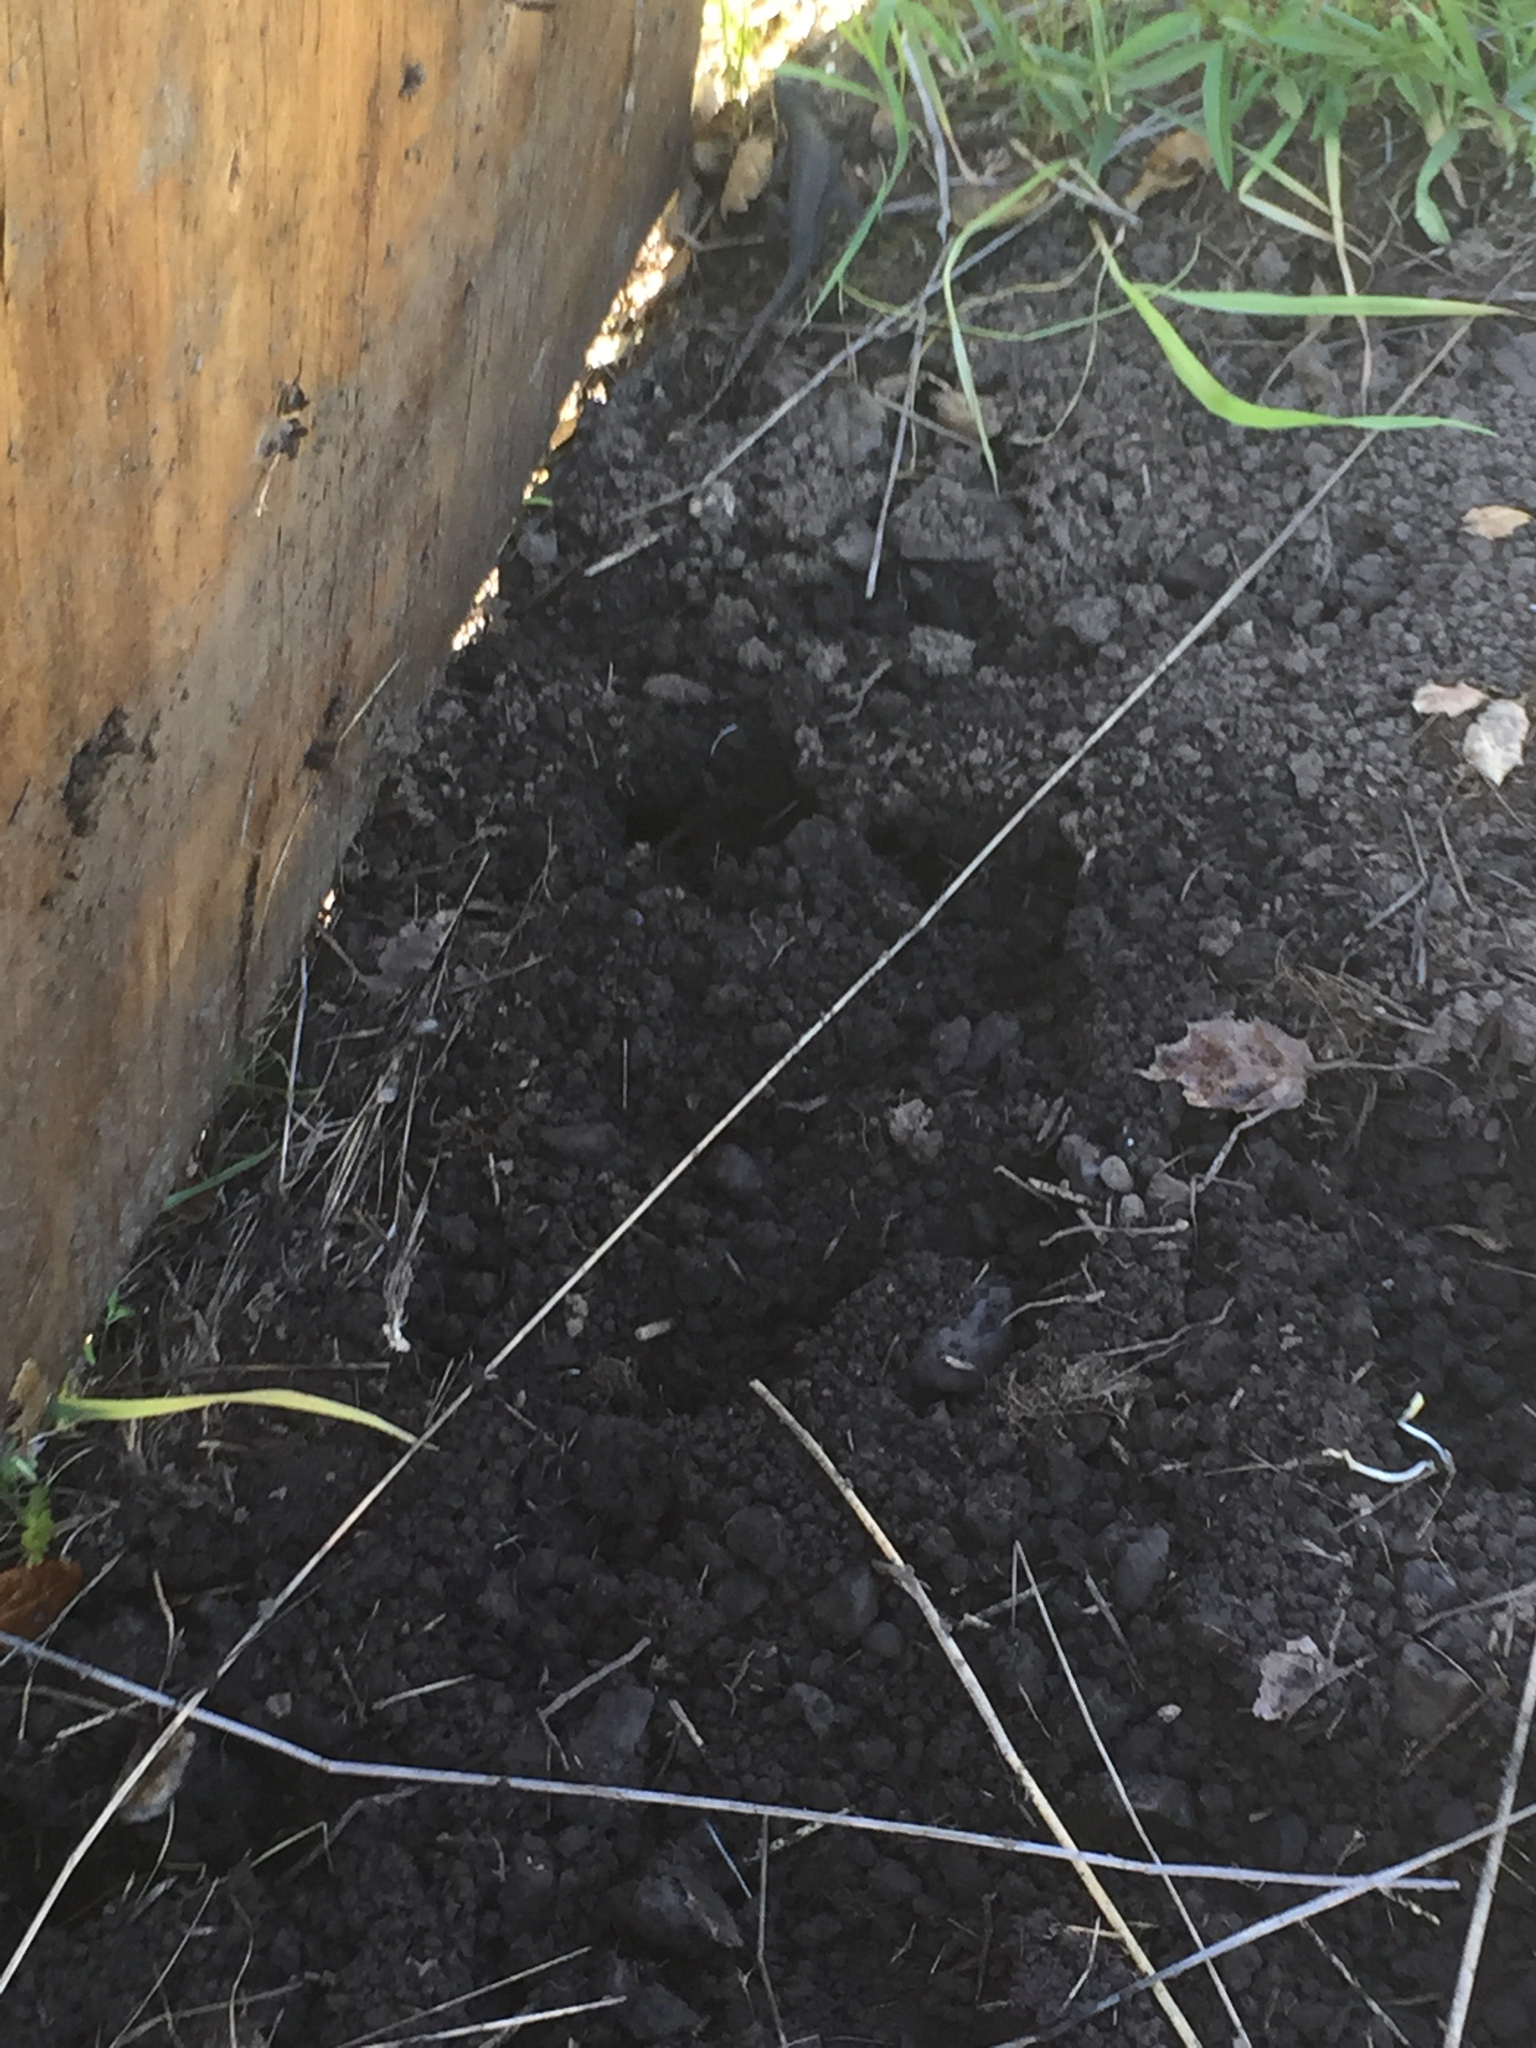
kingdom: Animalia
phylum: Chordata
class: Squamata
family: Phrynosomatidae
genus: Sceloporus
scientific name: Sceloporus occidentalis
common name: Western fence lizard
